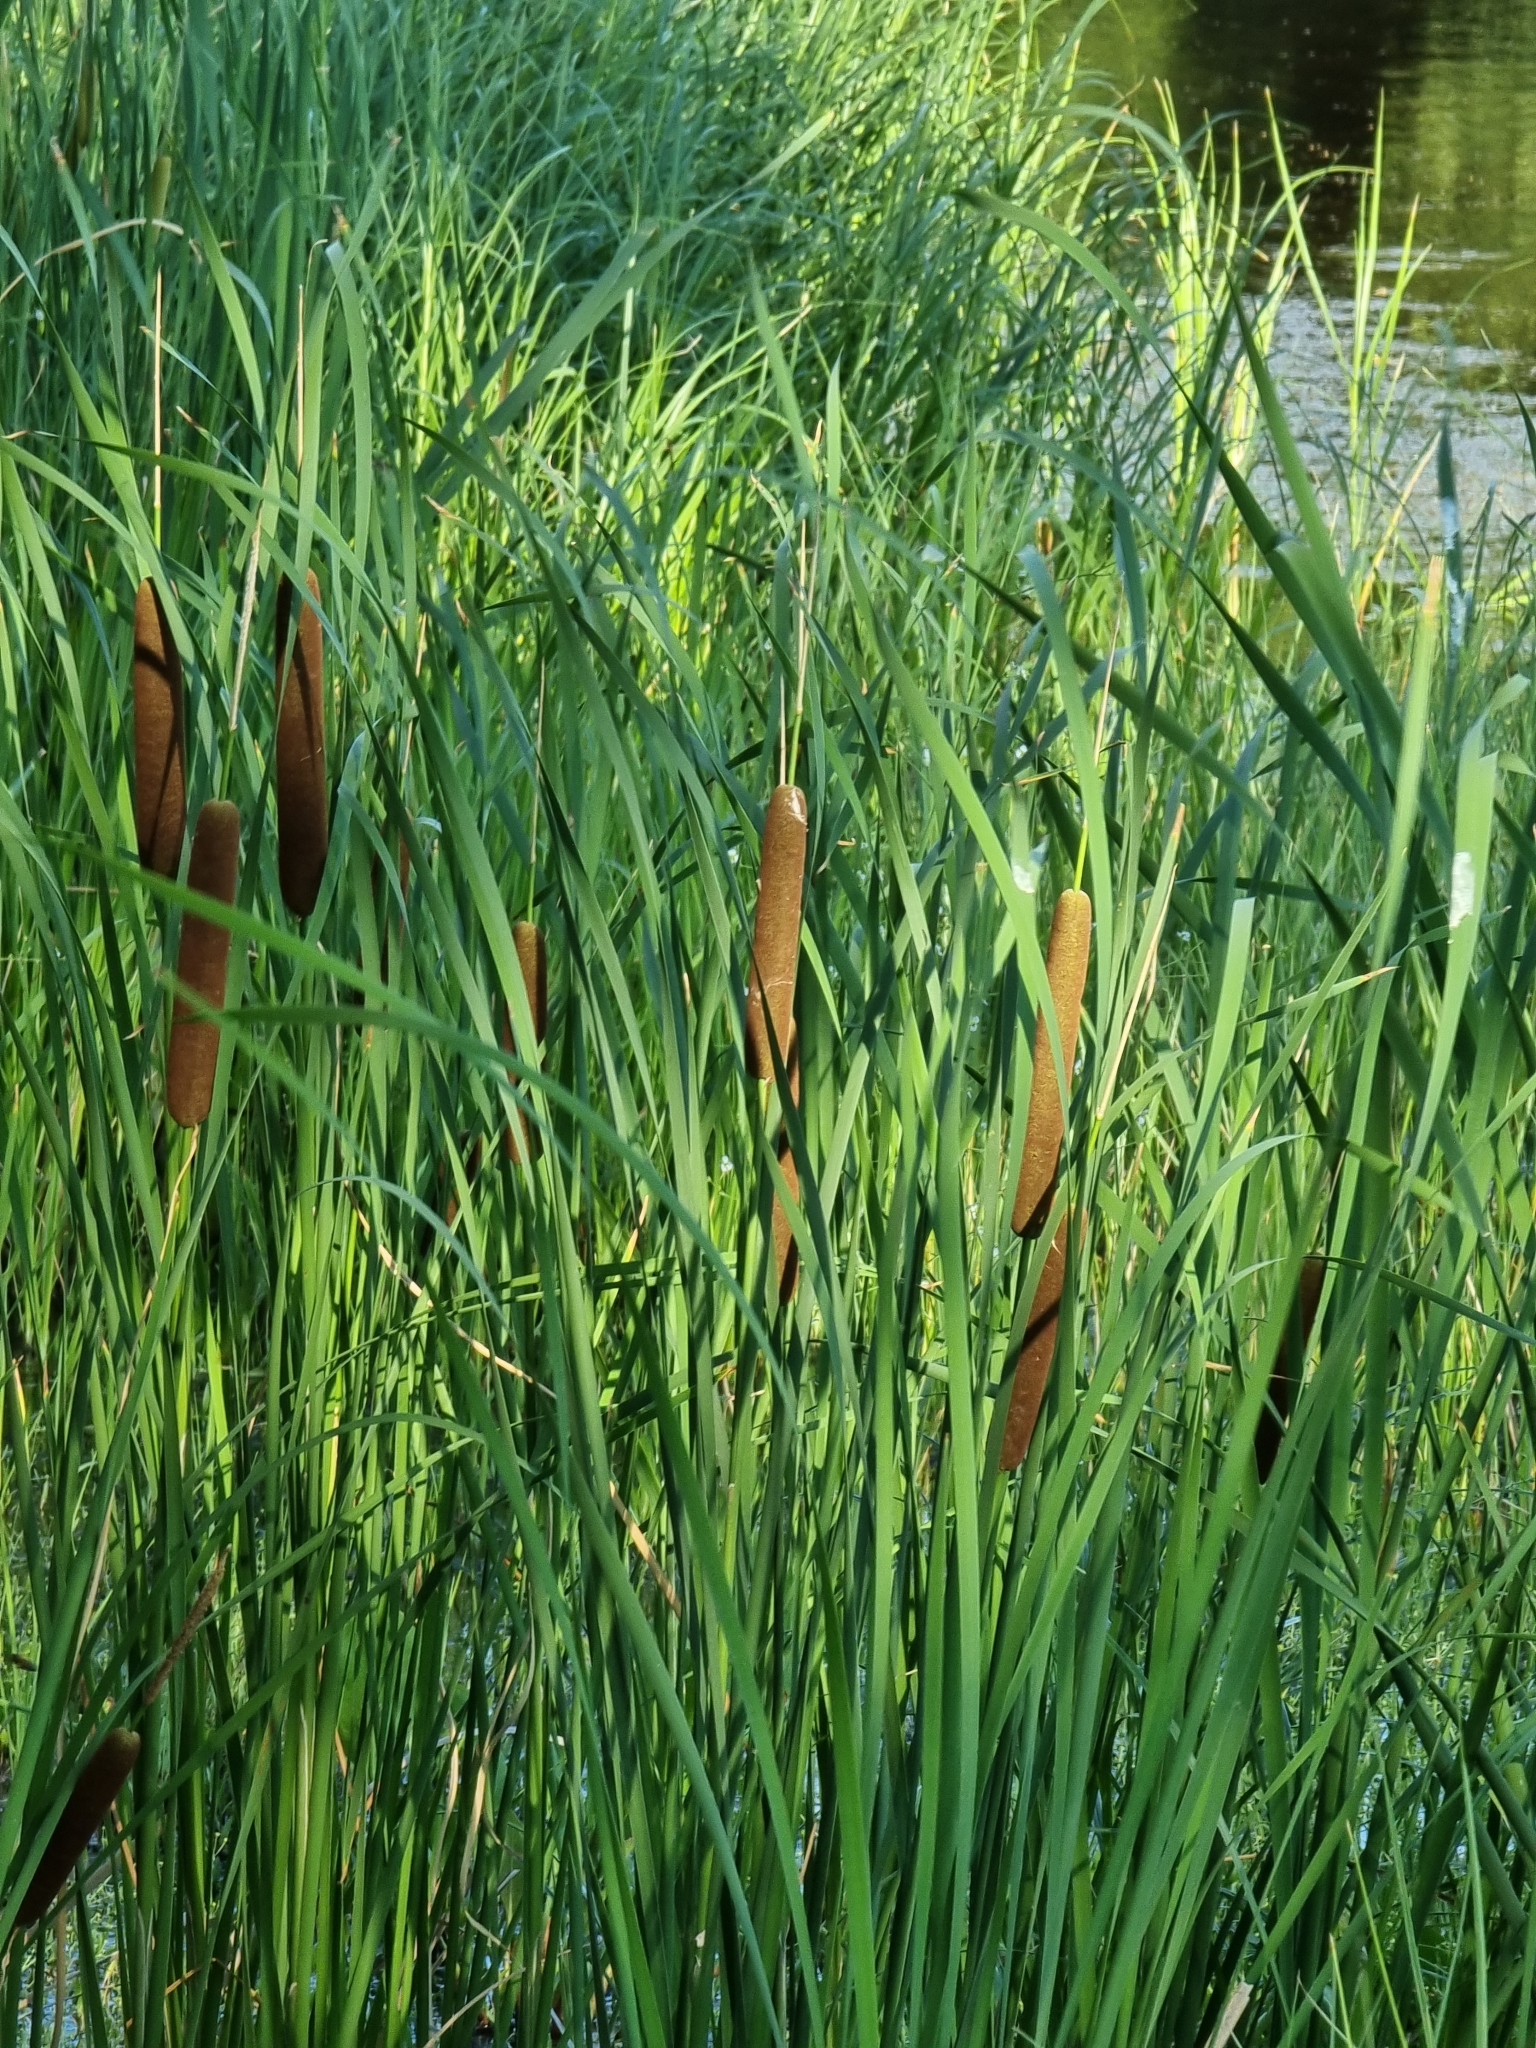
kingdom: Plantae
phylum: Tracheophyta
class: Liliopsida
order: Poales
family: Typhaceae
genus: Typha
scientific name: Typha latifolia
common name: Broadleaf cattail
